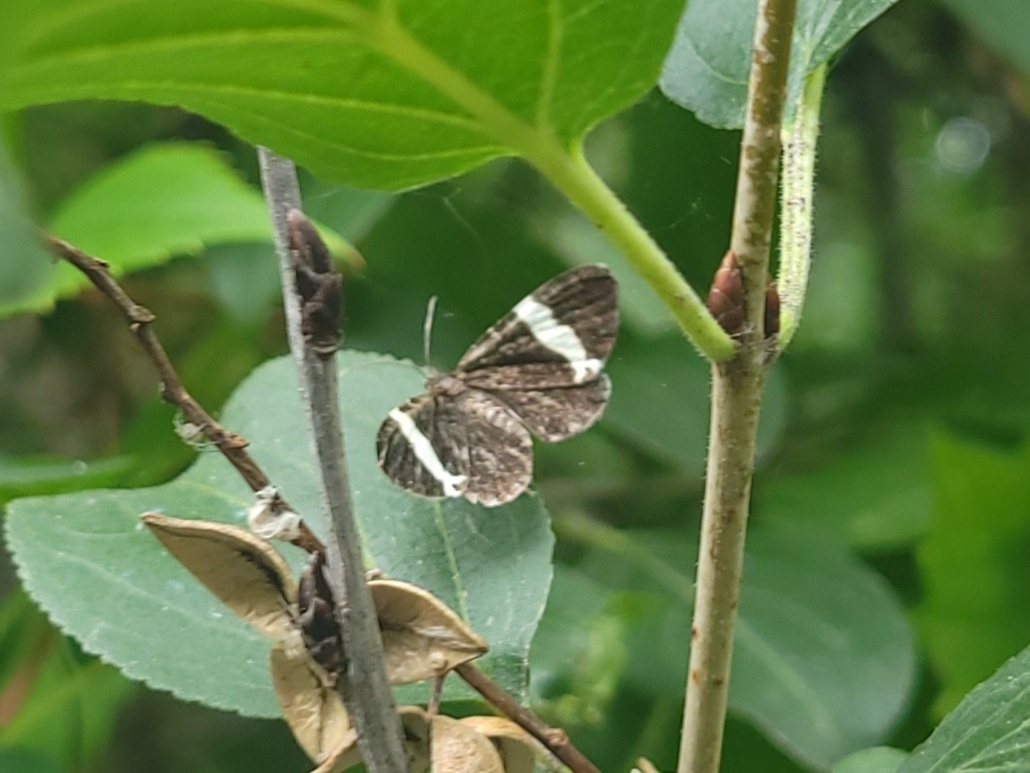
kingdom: Animalia
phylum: Arthropoda
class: Insecta
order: Lepidoptera
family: Geometridae
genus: Trichodezia
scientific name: Trichodezia albovittata
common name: White striped black
